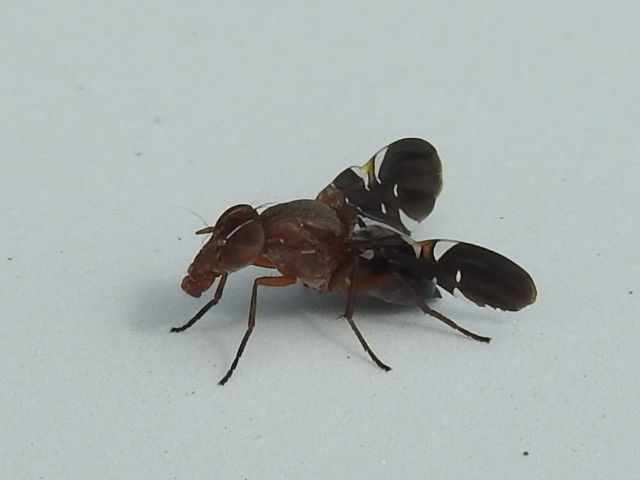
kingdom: Animalia
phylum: Arthropoda
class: Insecta
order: Diptera
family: Ulidiidae
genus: Delphinia
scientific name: Delphinia picta
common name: Common picture-winged fly
